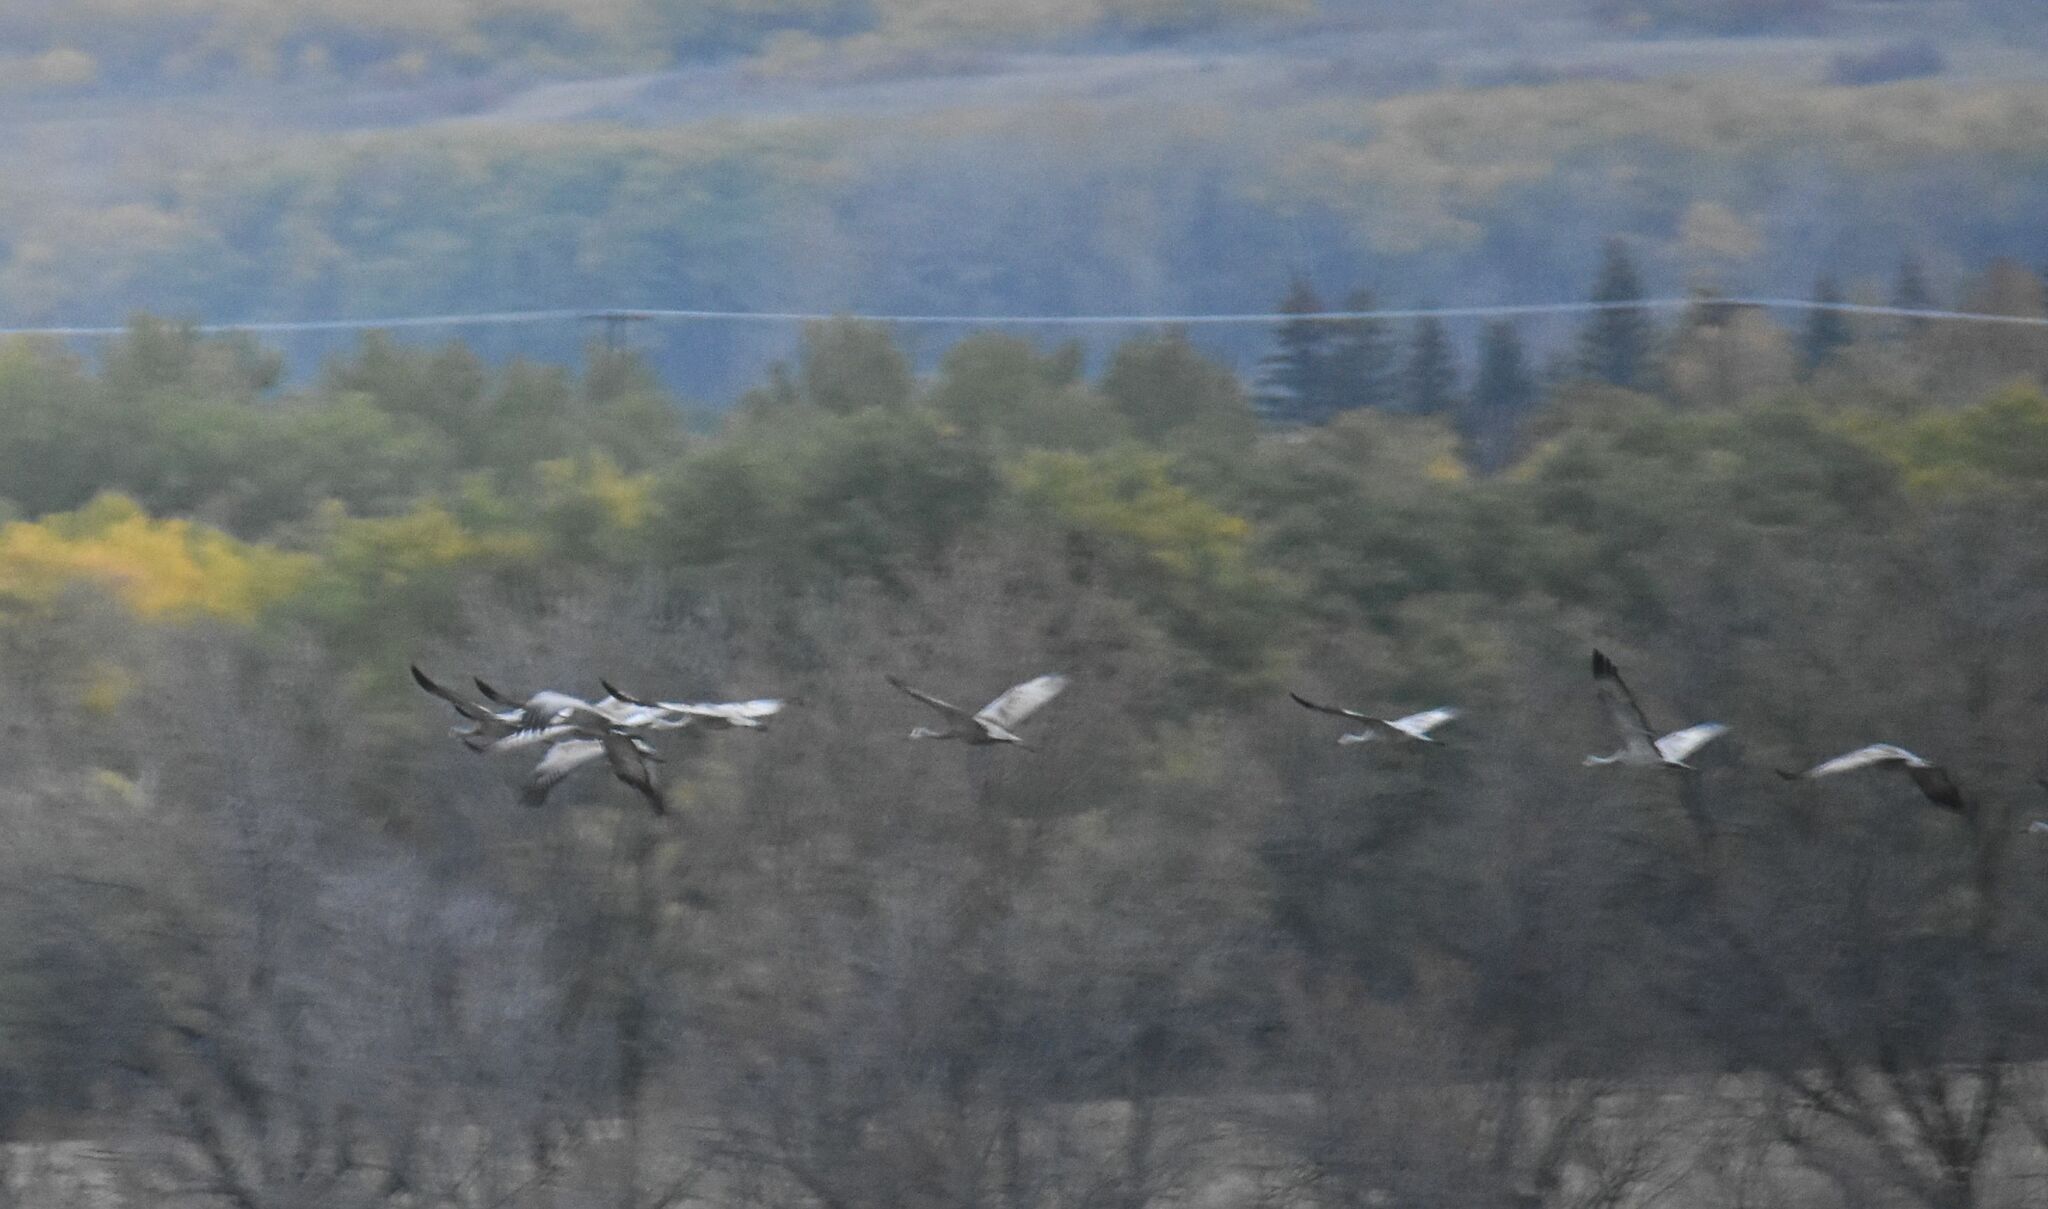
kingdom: Animalia
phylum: Chordata
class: Aves
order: Gruiformes
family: Gruidae
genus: Grus
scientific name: Grus canadensis
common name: Sandhill crane
